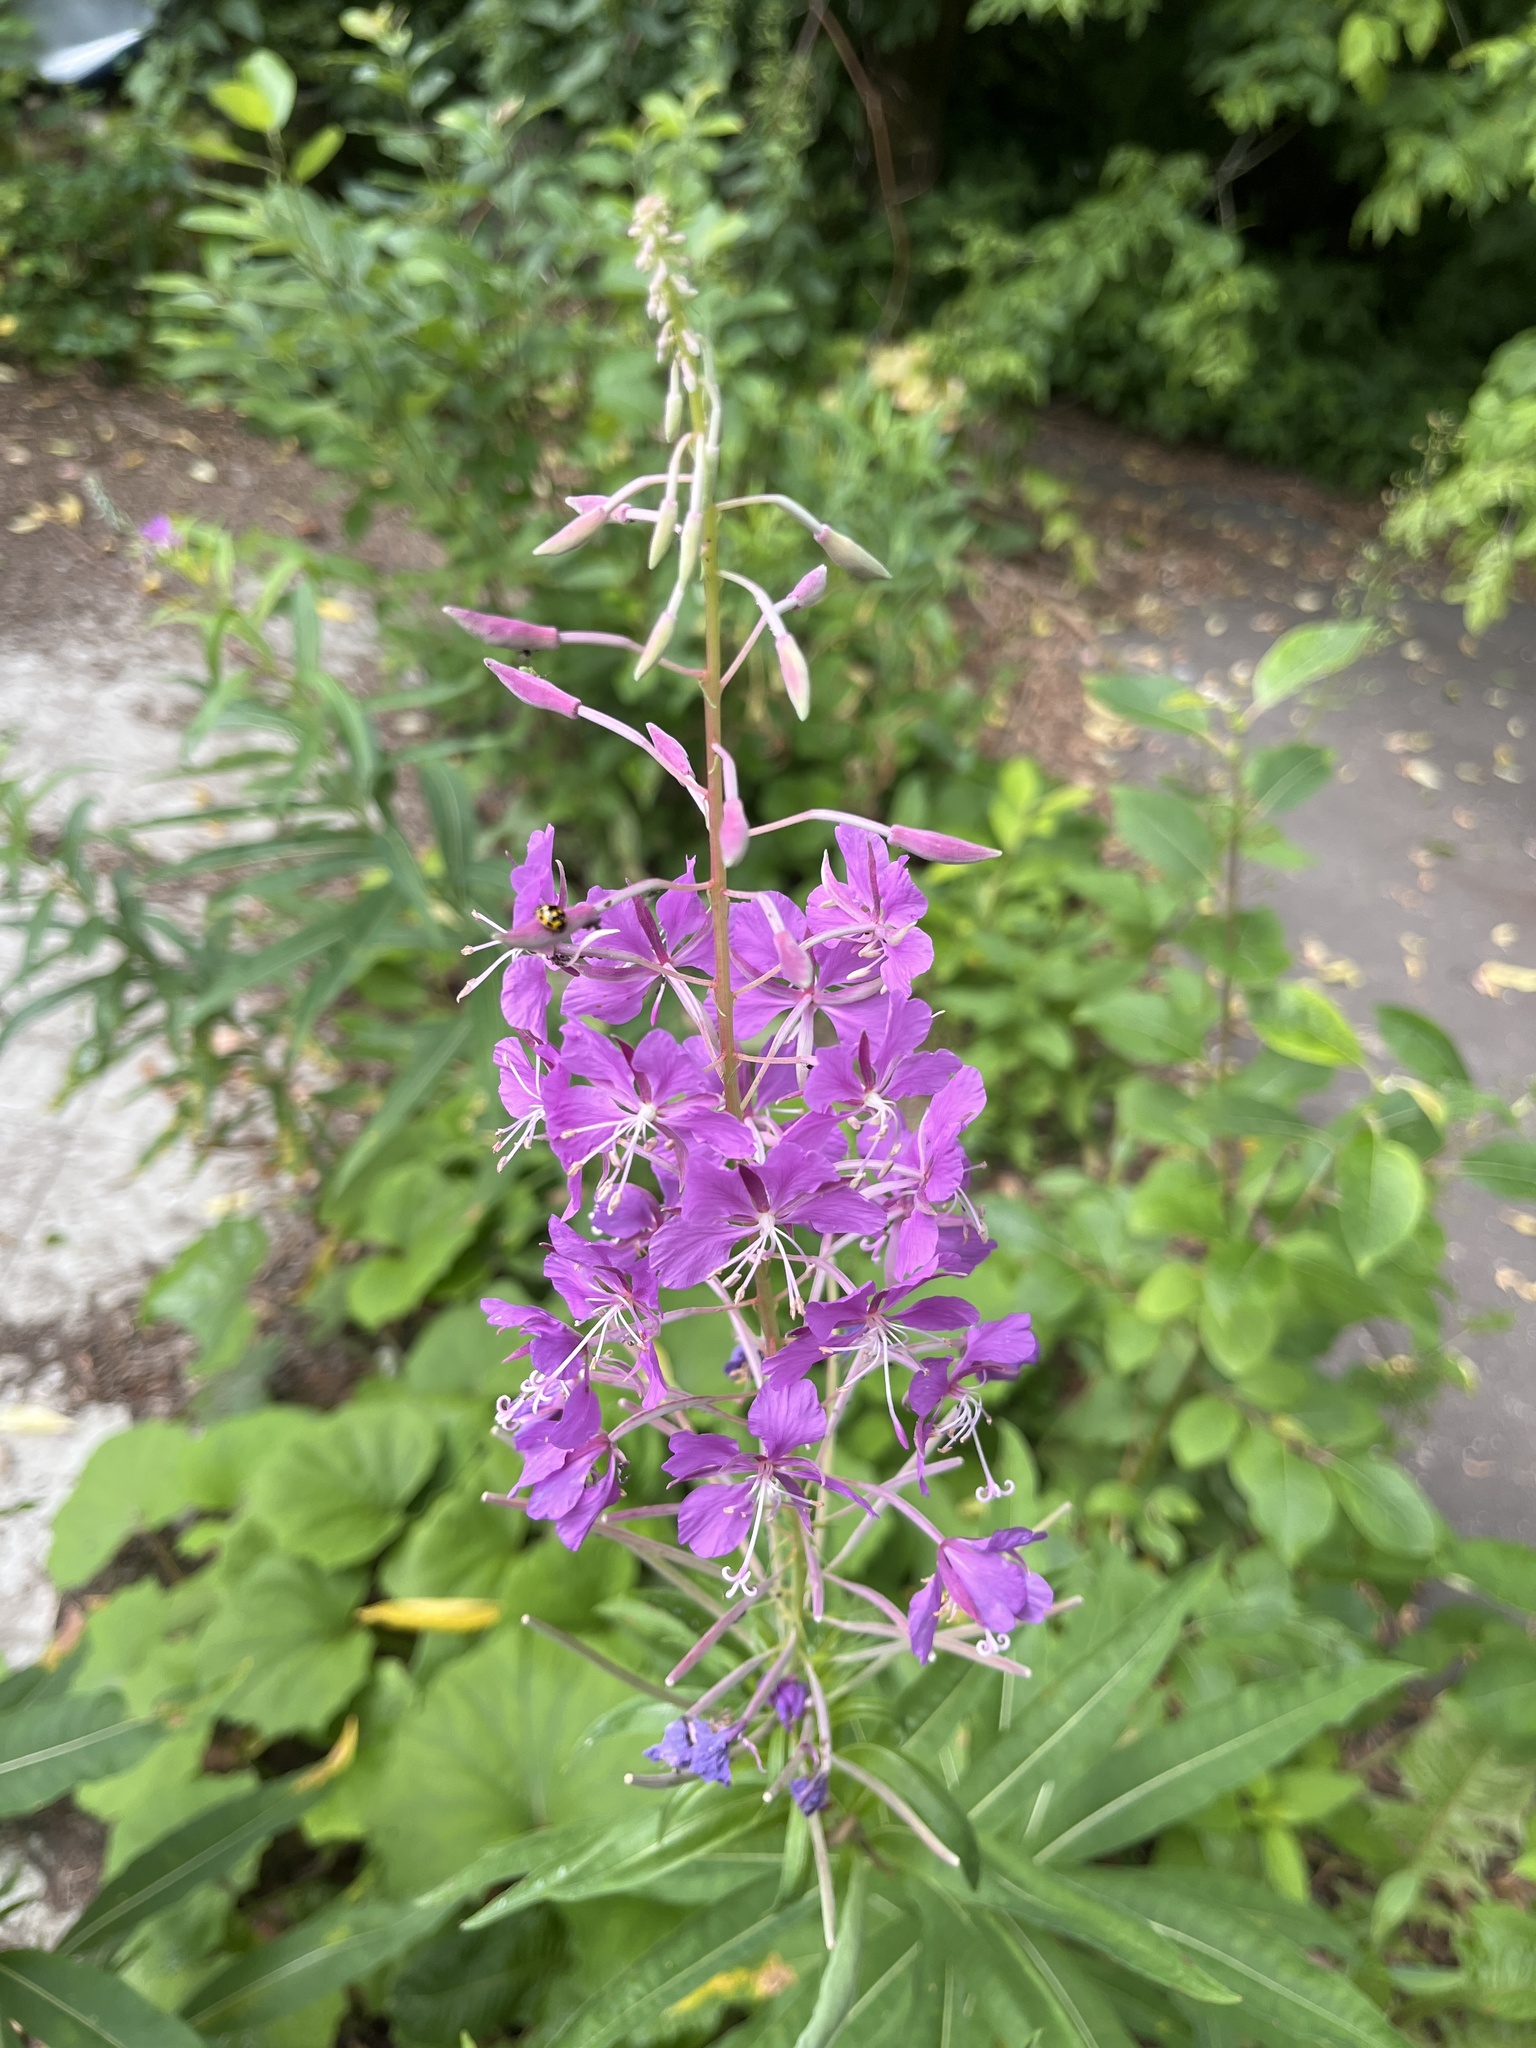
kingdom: Plantae
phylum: Tracheophyta
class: Magnoliopsida
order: Myrtales
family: Onagraceae
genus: Chamaenerion
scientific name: Chamaenerion angustifolium
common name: Fireweed
